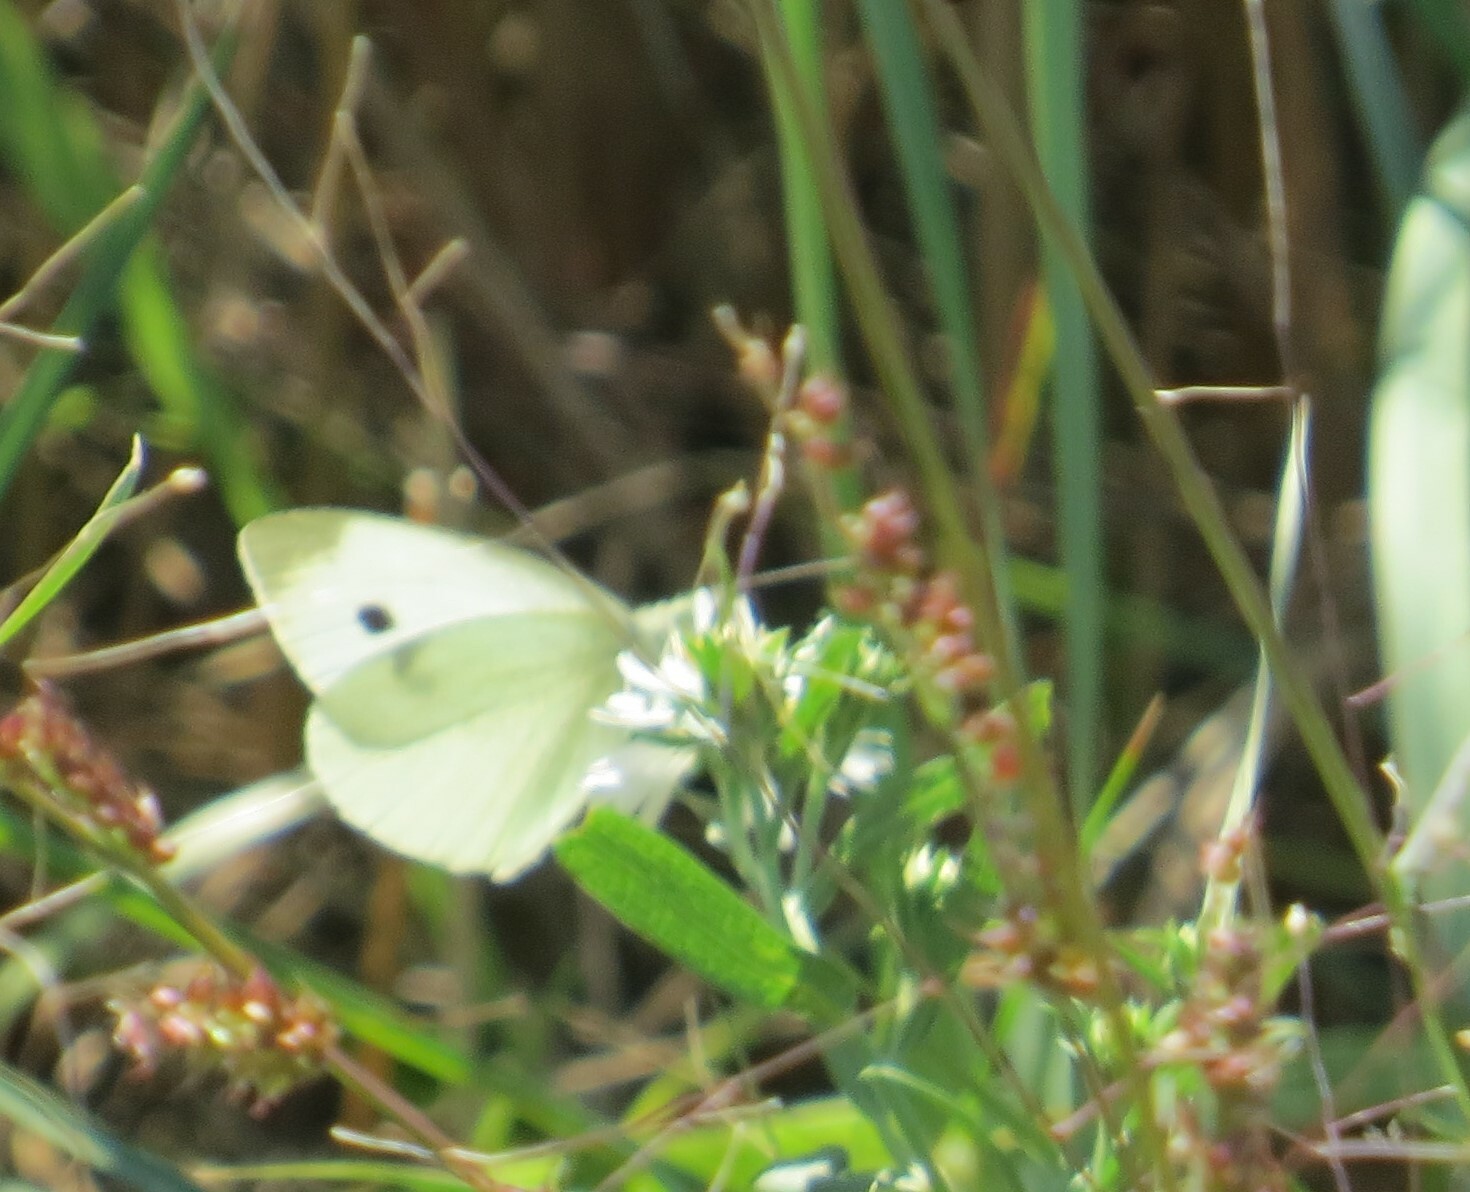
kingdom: Animalia
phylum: Arthropoda
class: Insecta
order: Lepidoptera
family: Pieridae
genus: Pieris
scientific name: Pieris rapae
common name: Small white
